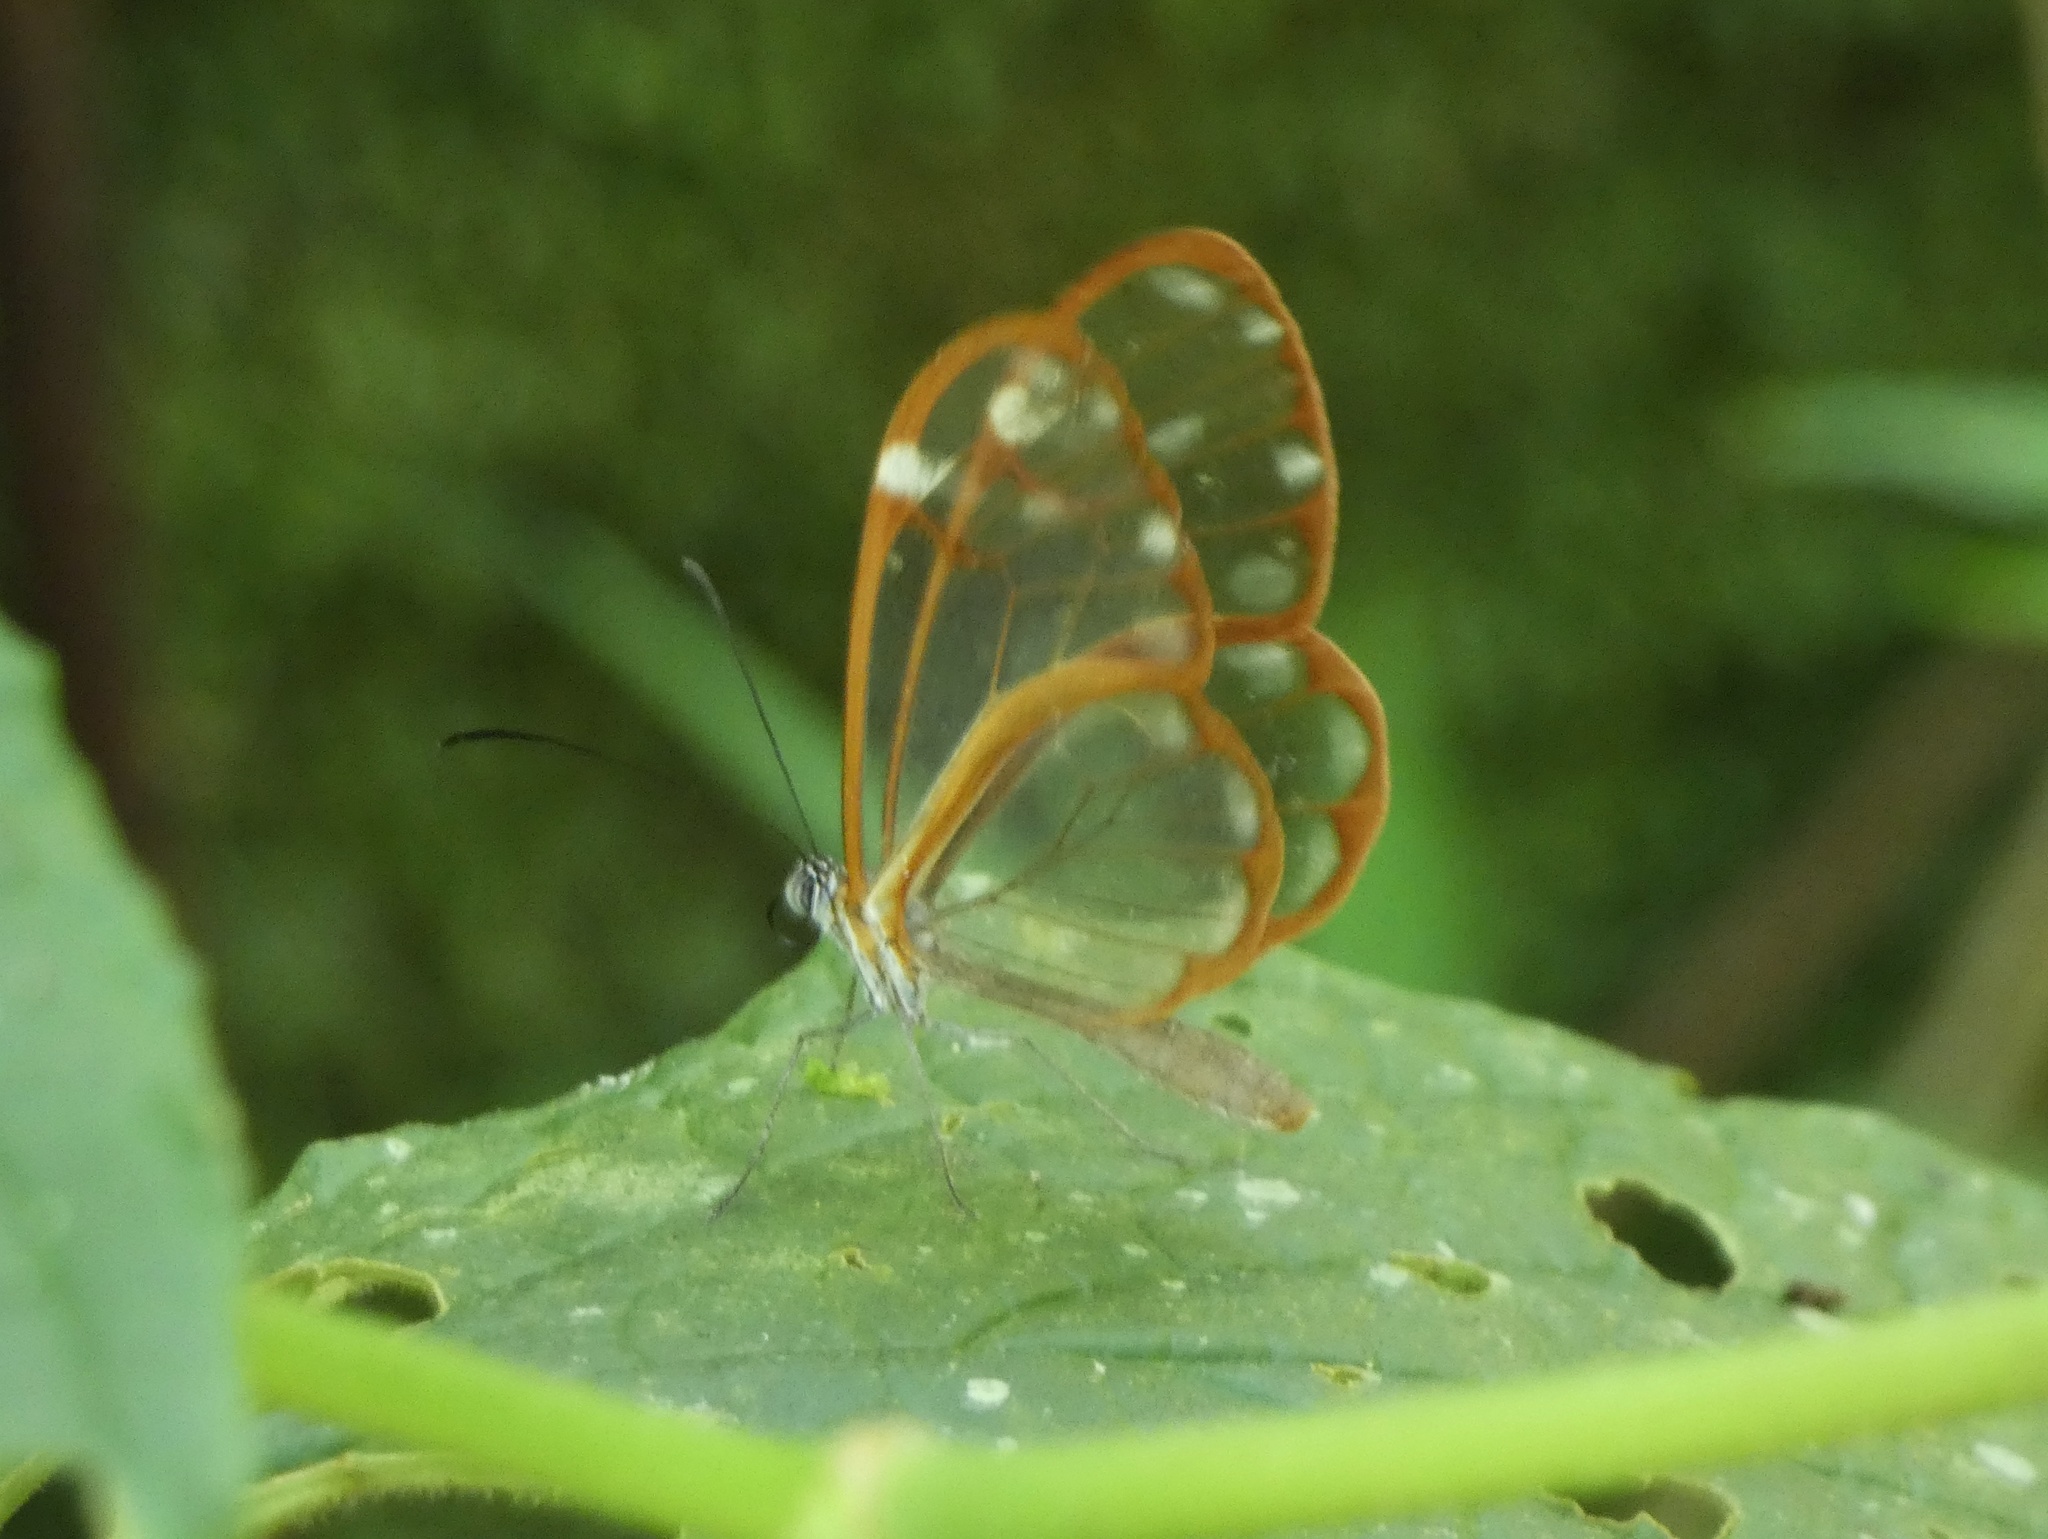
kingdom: Animalia
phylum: Arthropoda
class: Insecta
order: Lepidoptera
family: Nymphalidae
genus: Greta
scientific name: Greta annette
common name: White-spotted clearwing
